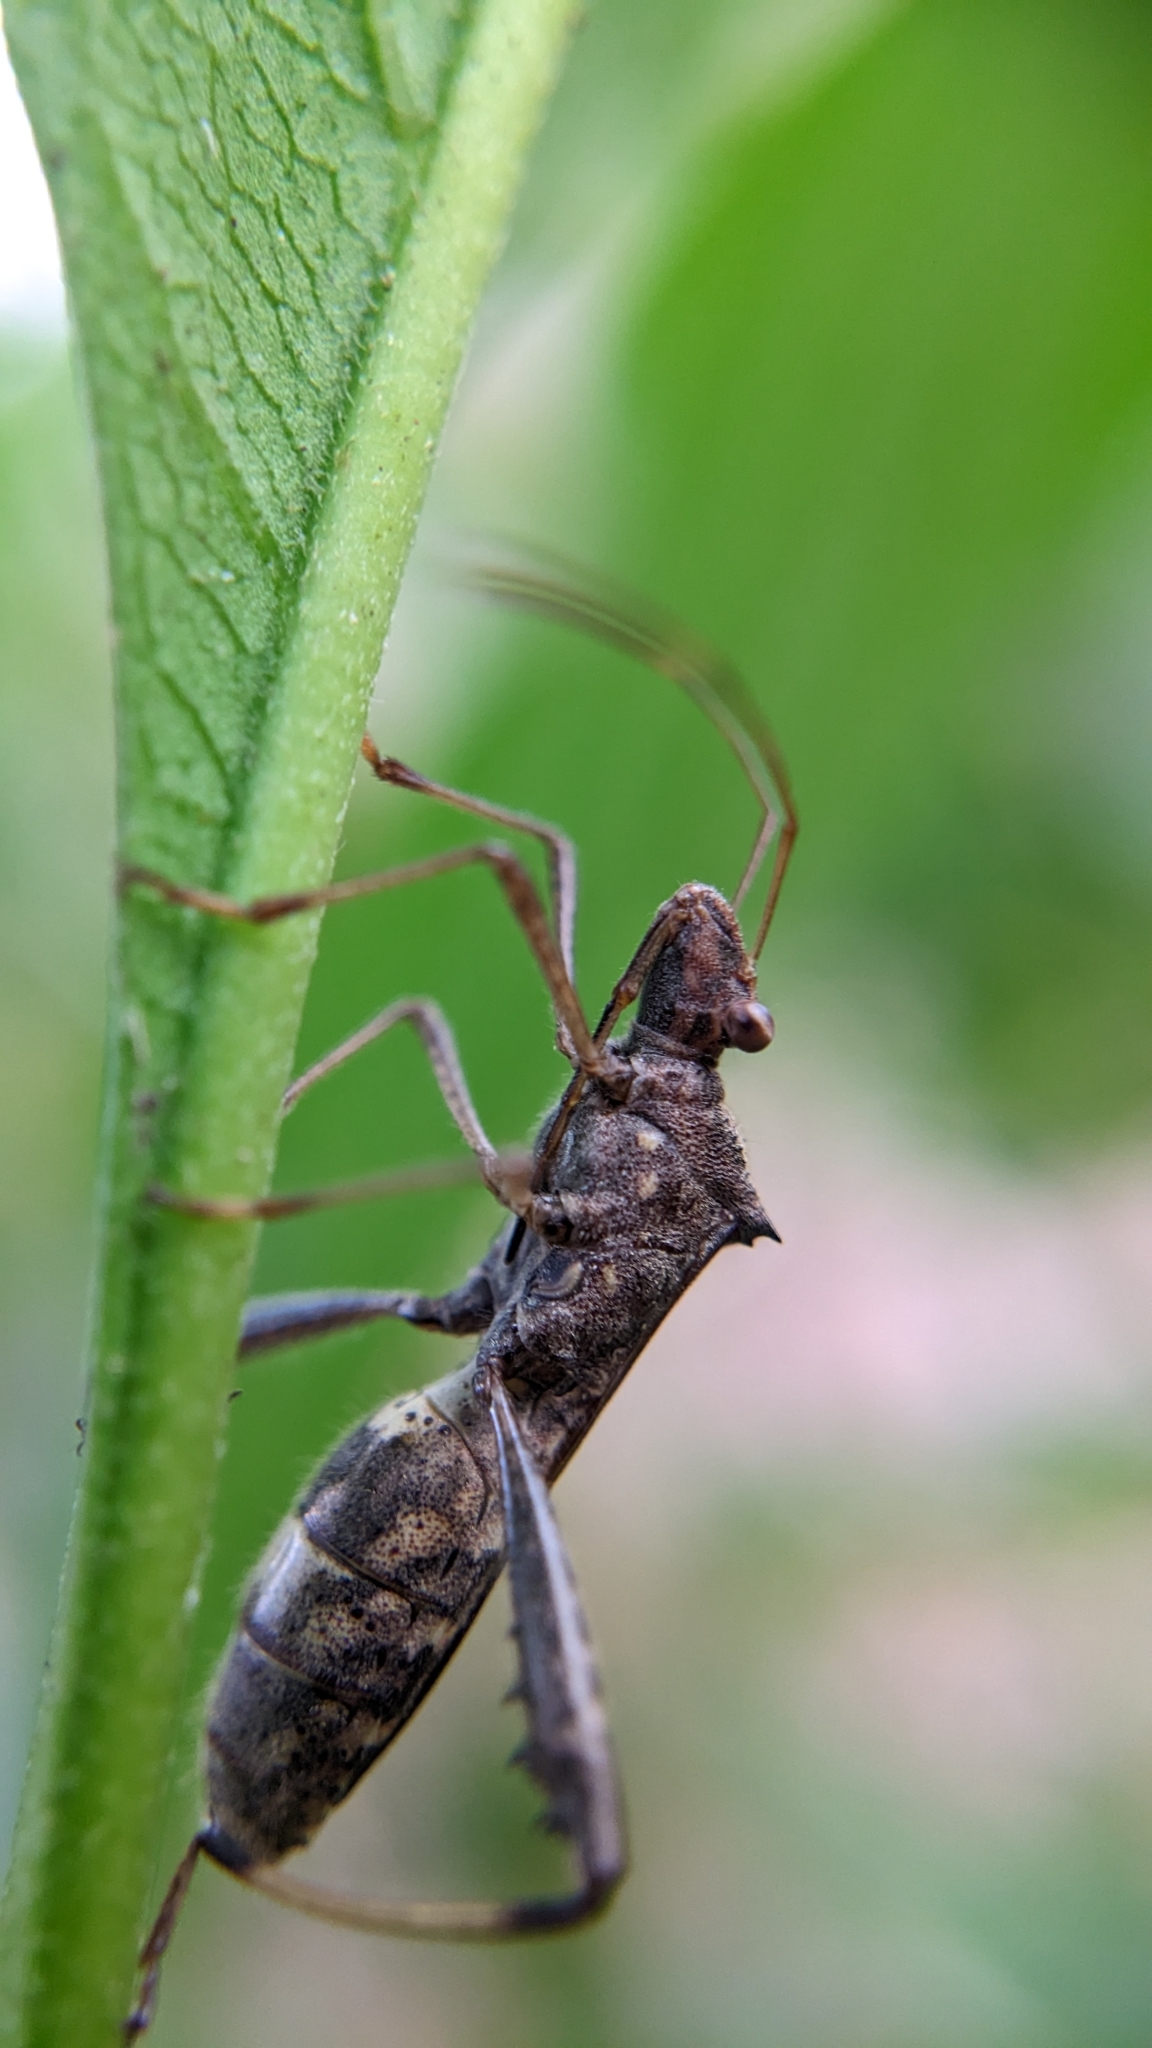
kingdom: Animalia
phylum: Arthropoda
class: Insecta
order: Hemiptera
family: Alydidae
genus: Riptortus
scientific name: Riptortus pedestris
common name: Bean bug
